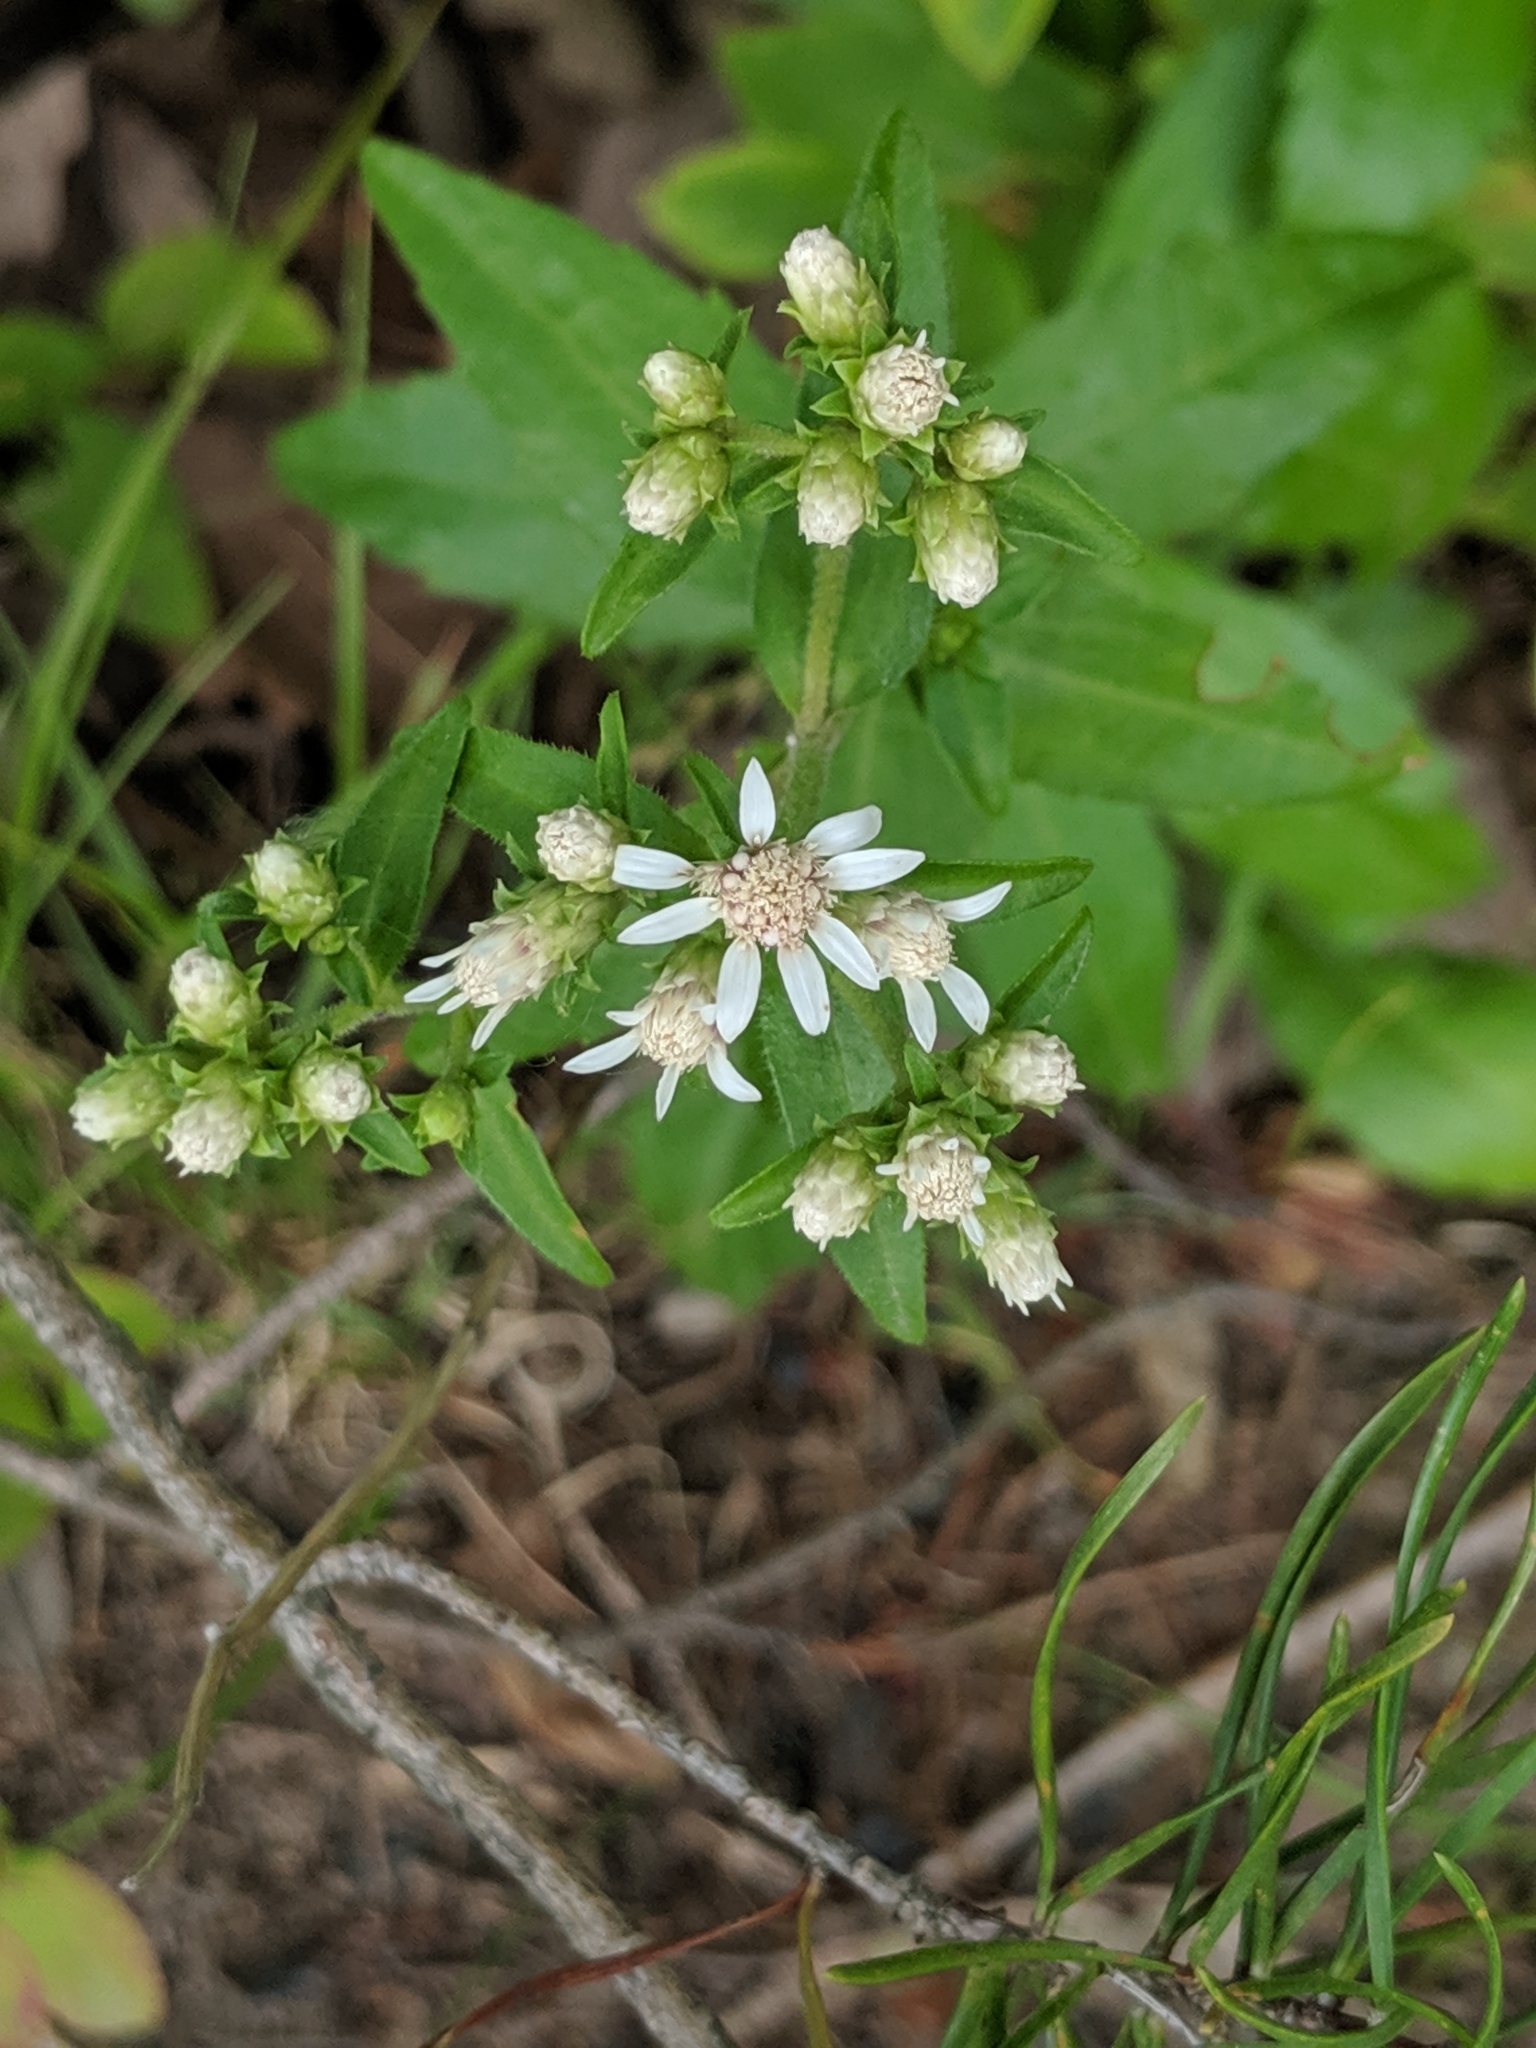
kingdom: Plantae
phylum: Tracheophyta
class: Magnoliopsida
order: Asterales
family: Asteraceae
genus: Sericocarpus
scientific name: Sericocarpus asteroides
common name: Toothed white-top aster
